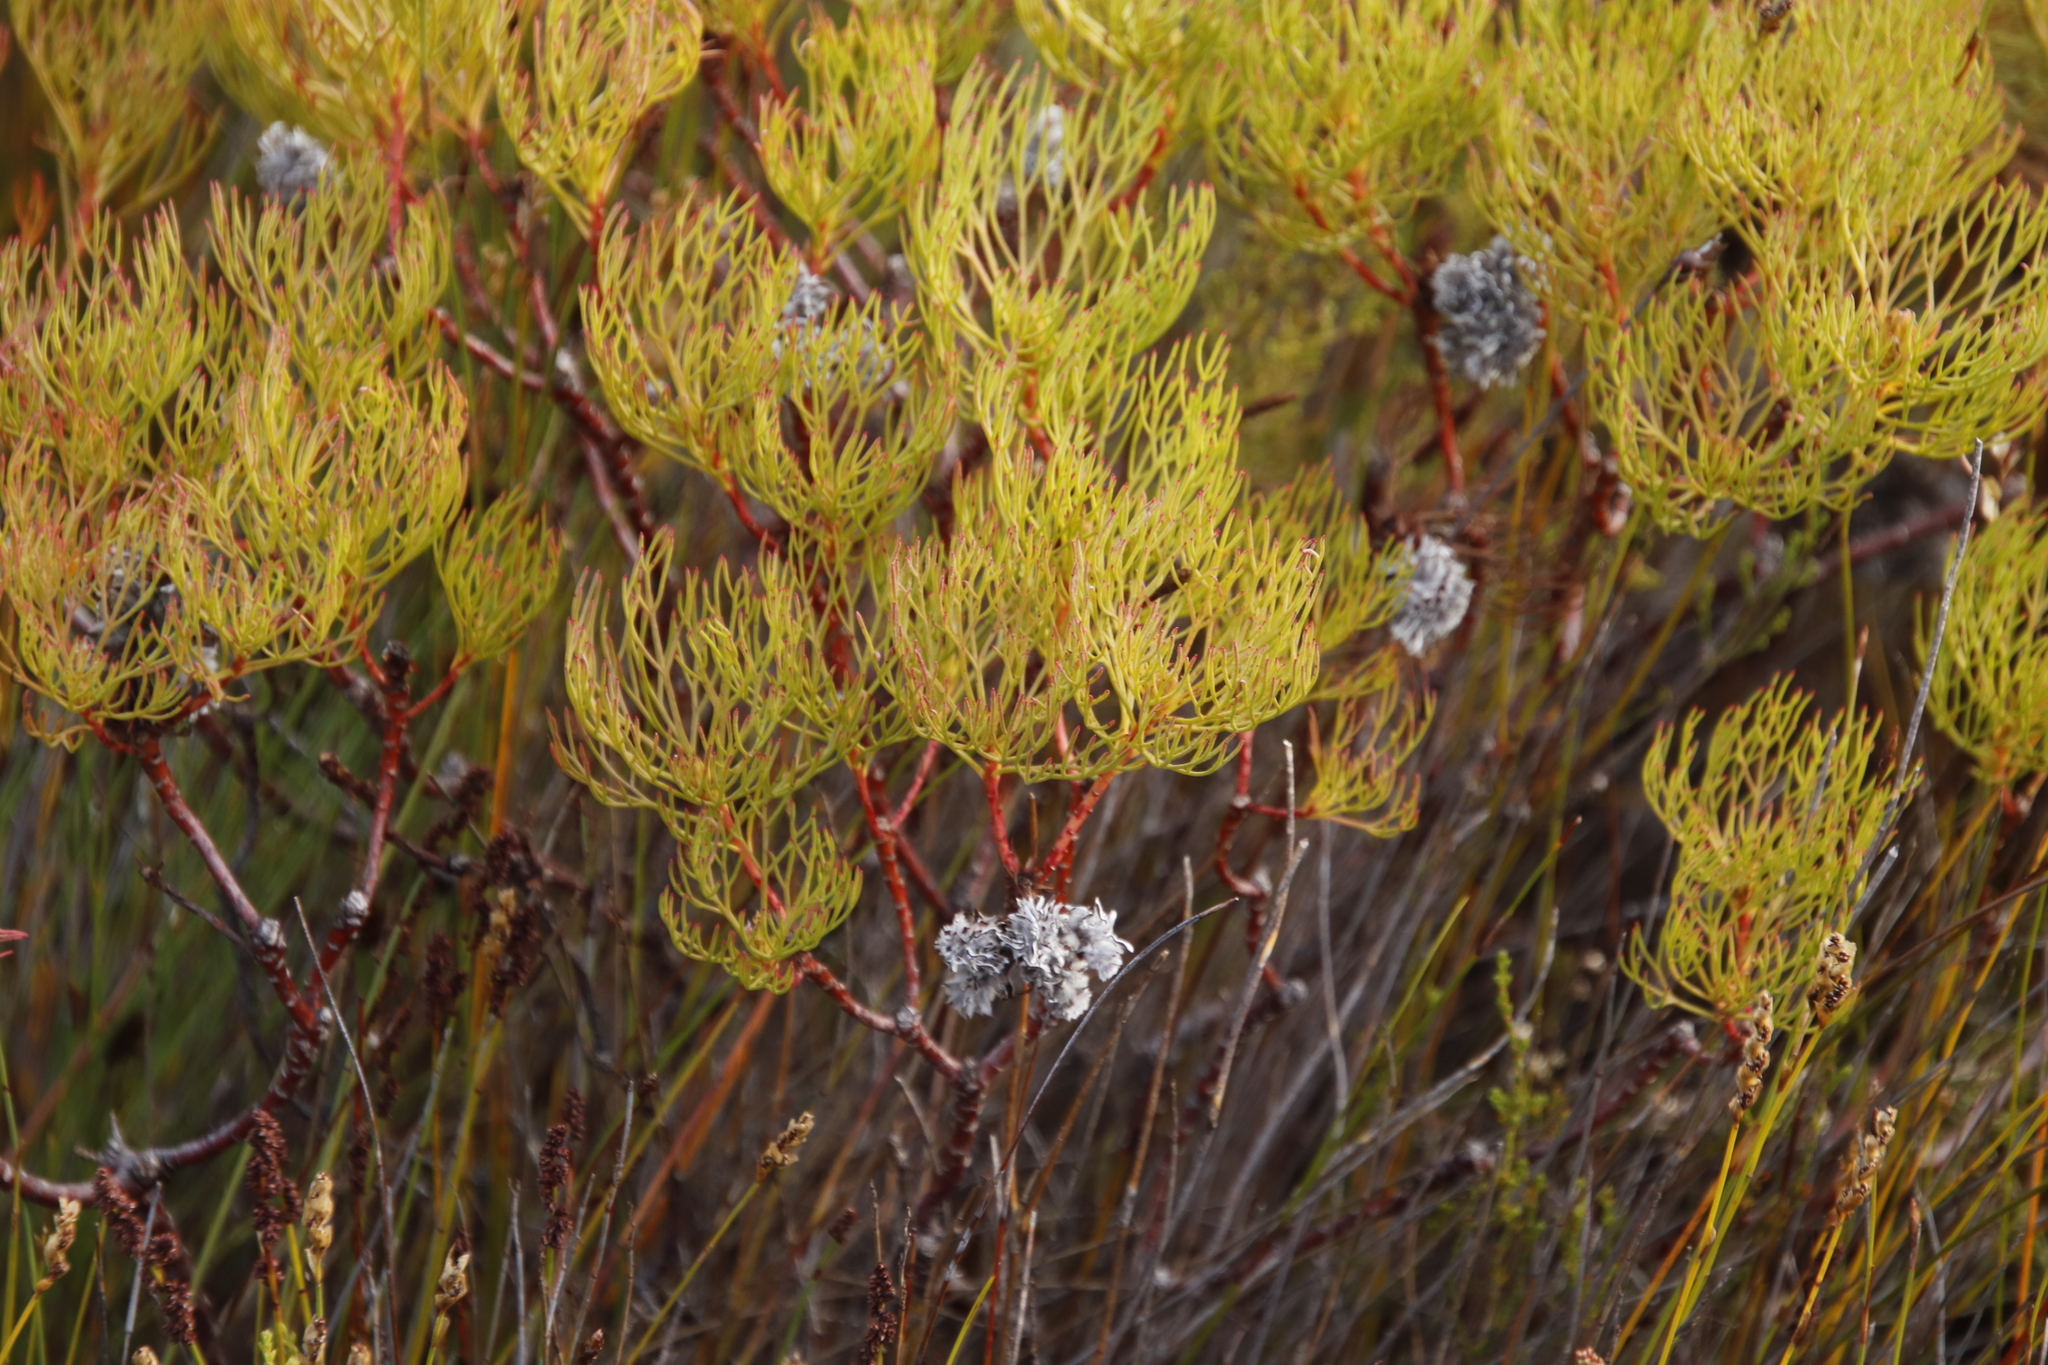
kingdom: Plantae
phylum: Tracheophyta
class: Magnoliopsida
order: Proteales
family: Proteaceae
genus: Serruria
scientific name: Serruria glomerata
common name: Cluster spiderhead
